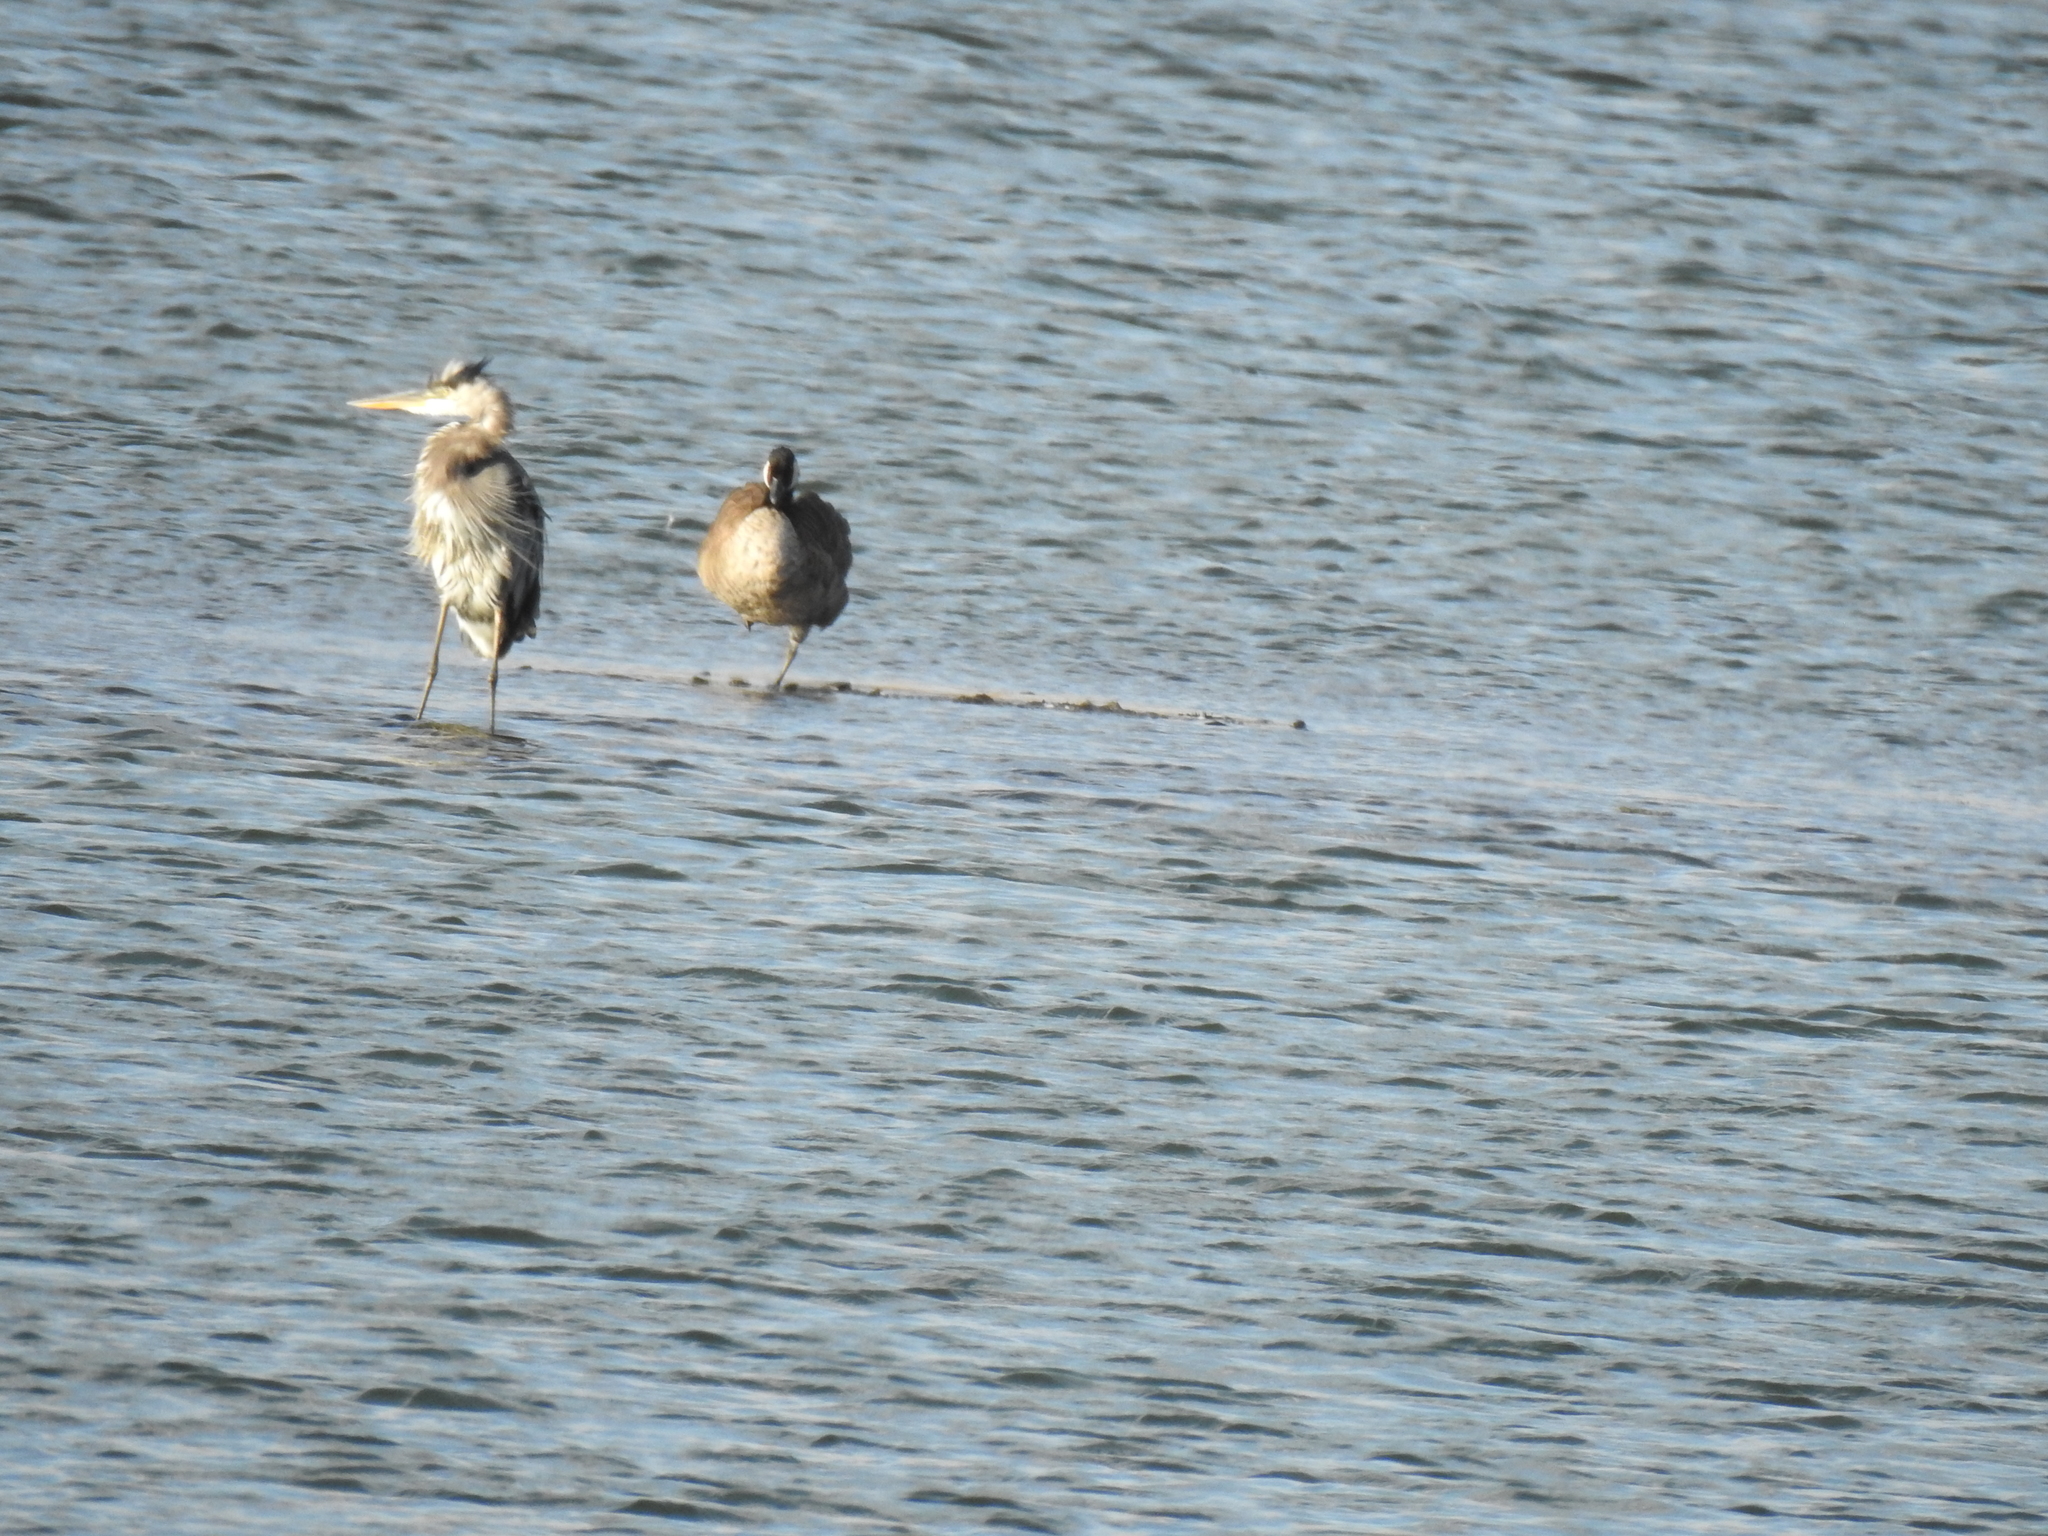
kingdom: Animalia
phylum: Chordata
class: Aves
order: Pelecaniformes
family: Ardeidae
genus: Ardea
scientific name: Ardea herodias
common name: Great blue heron
